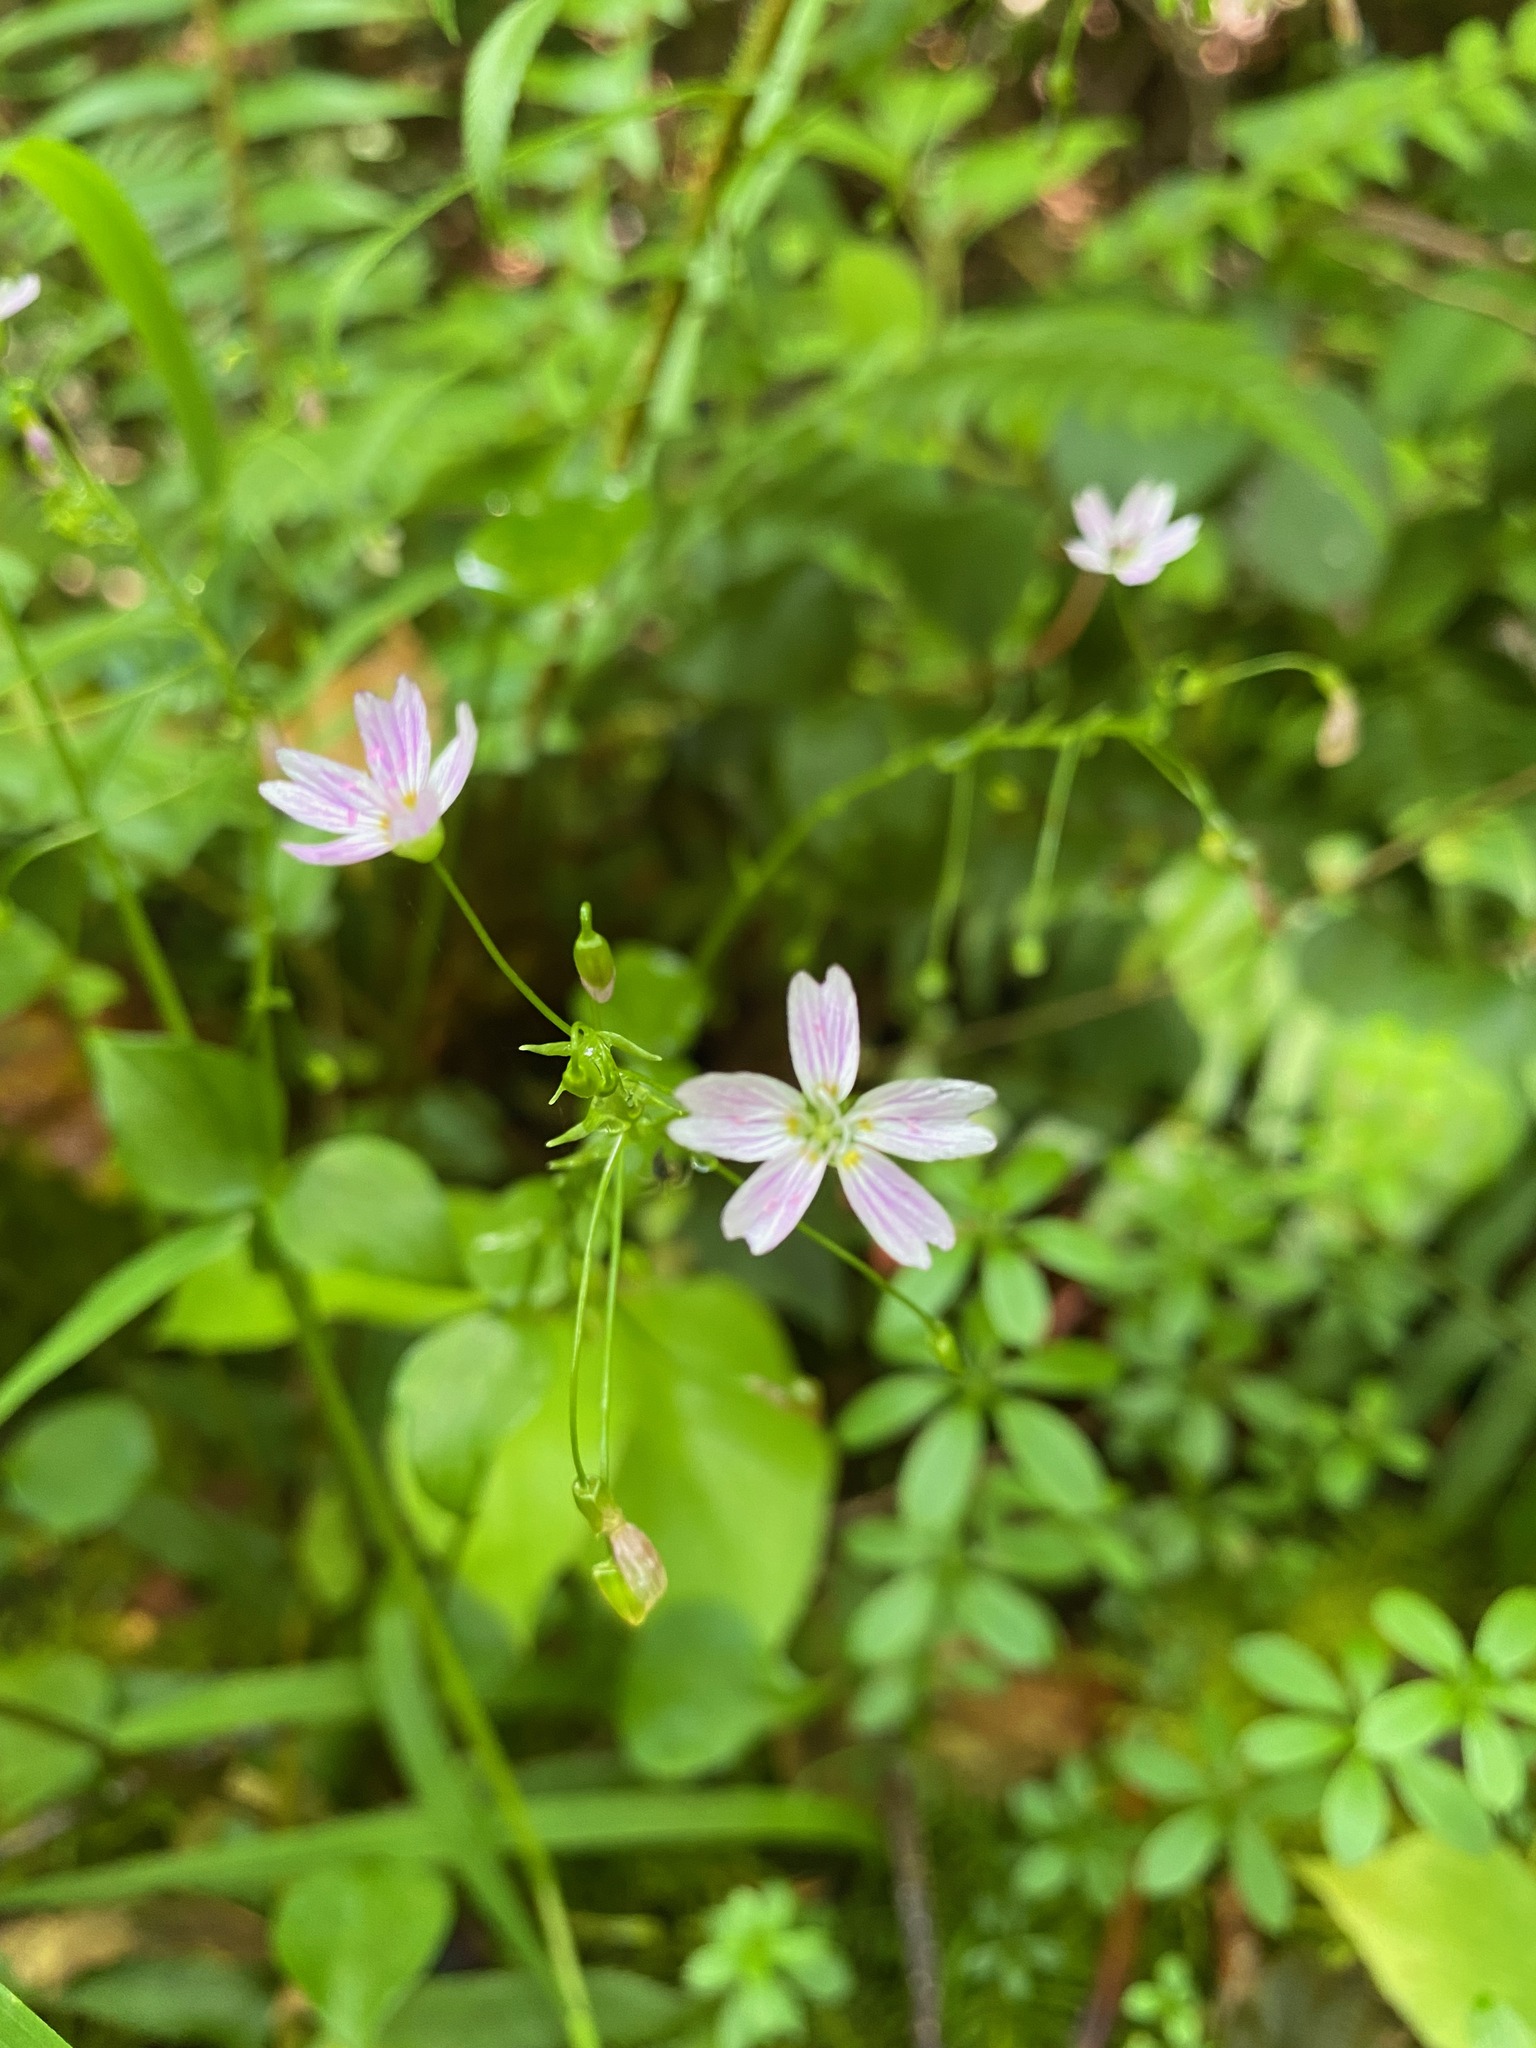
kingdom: Plantae
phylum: Tracheophyta
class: Magnoliopsida
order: Caryophyllales
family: Montiaceae
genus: Claytonia
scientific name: Claytonia sibirica
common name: Pink purslane
